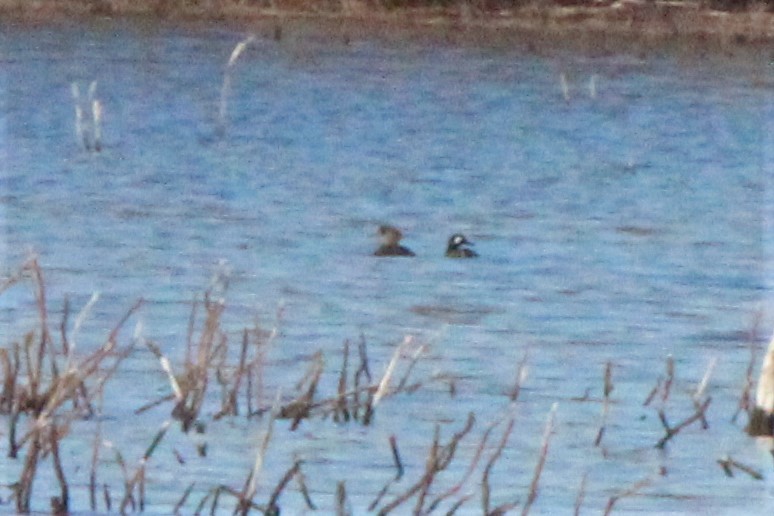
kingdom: Animalia
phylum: Chordata
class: Aves
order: Anseriformes
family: Anatidae
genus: Lophodytes
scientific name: Lophodytes cucullatus
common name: Hooded merganser
